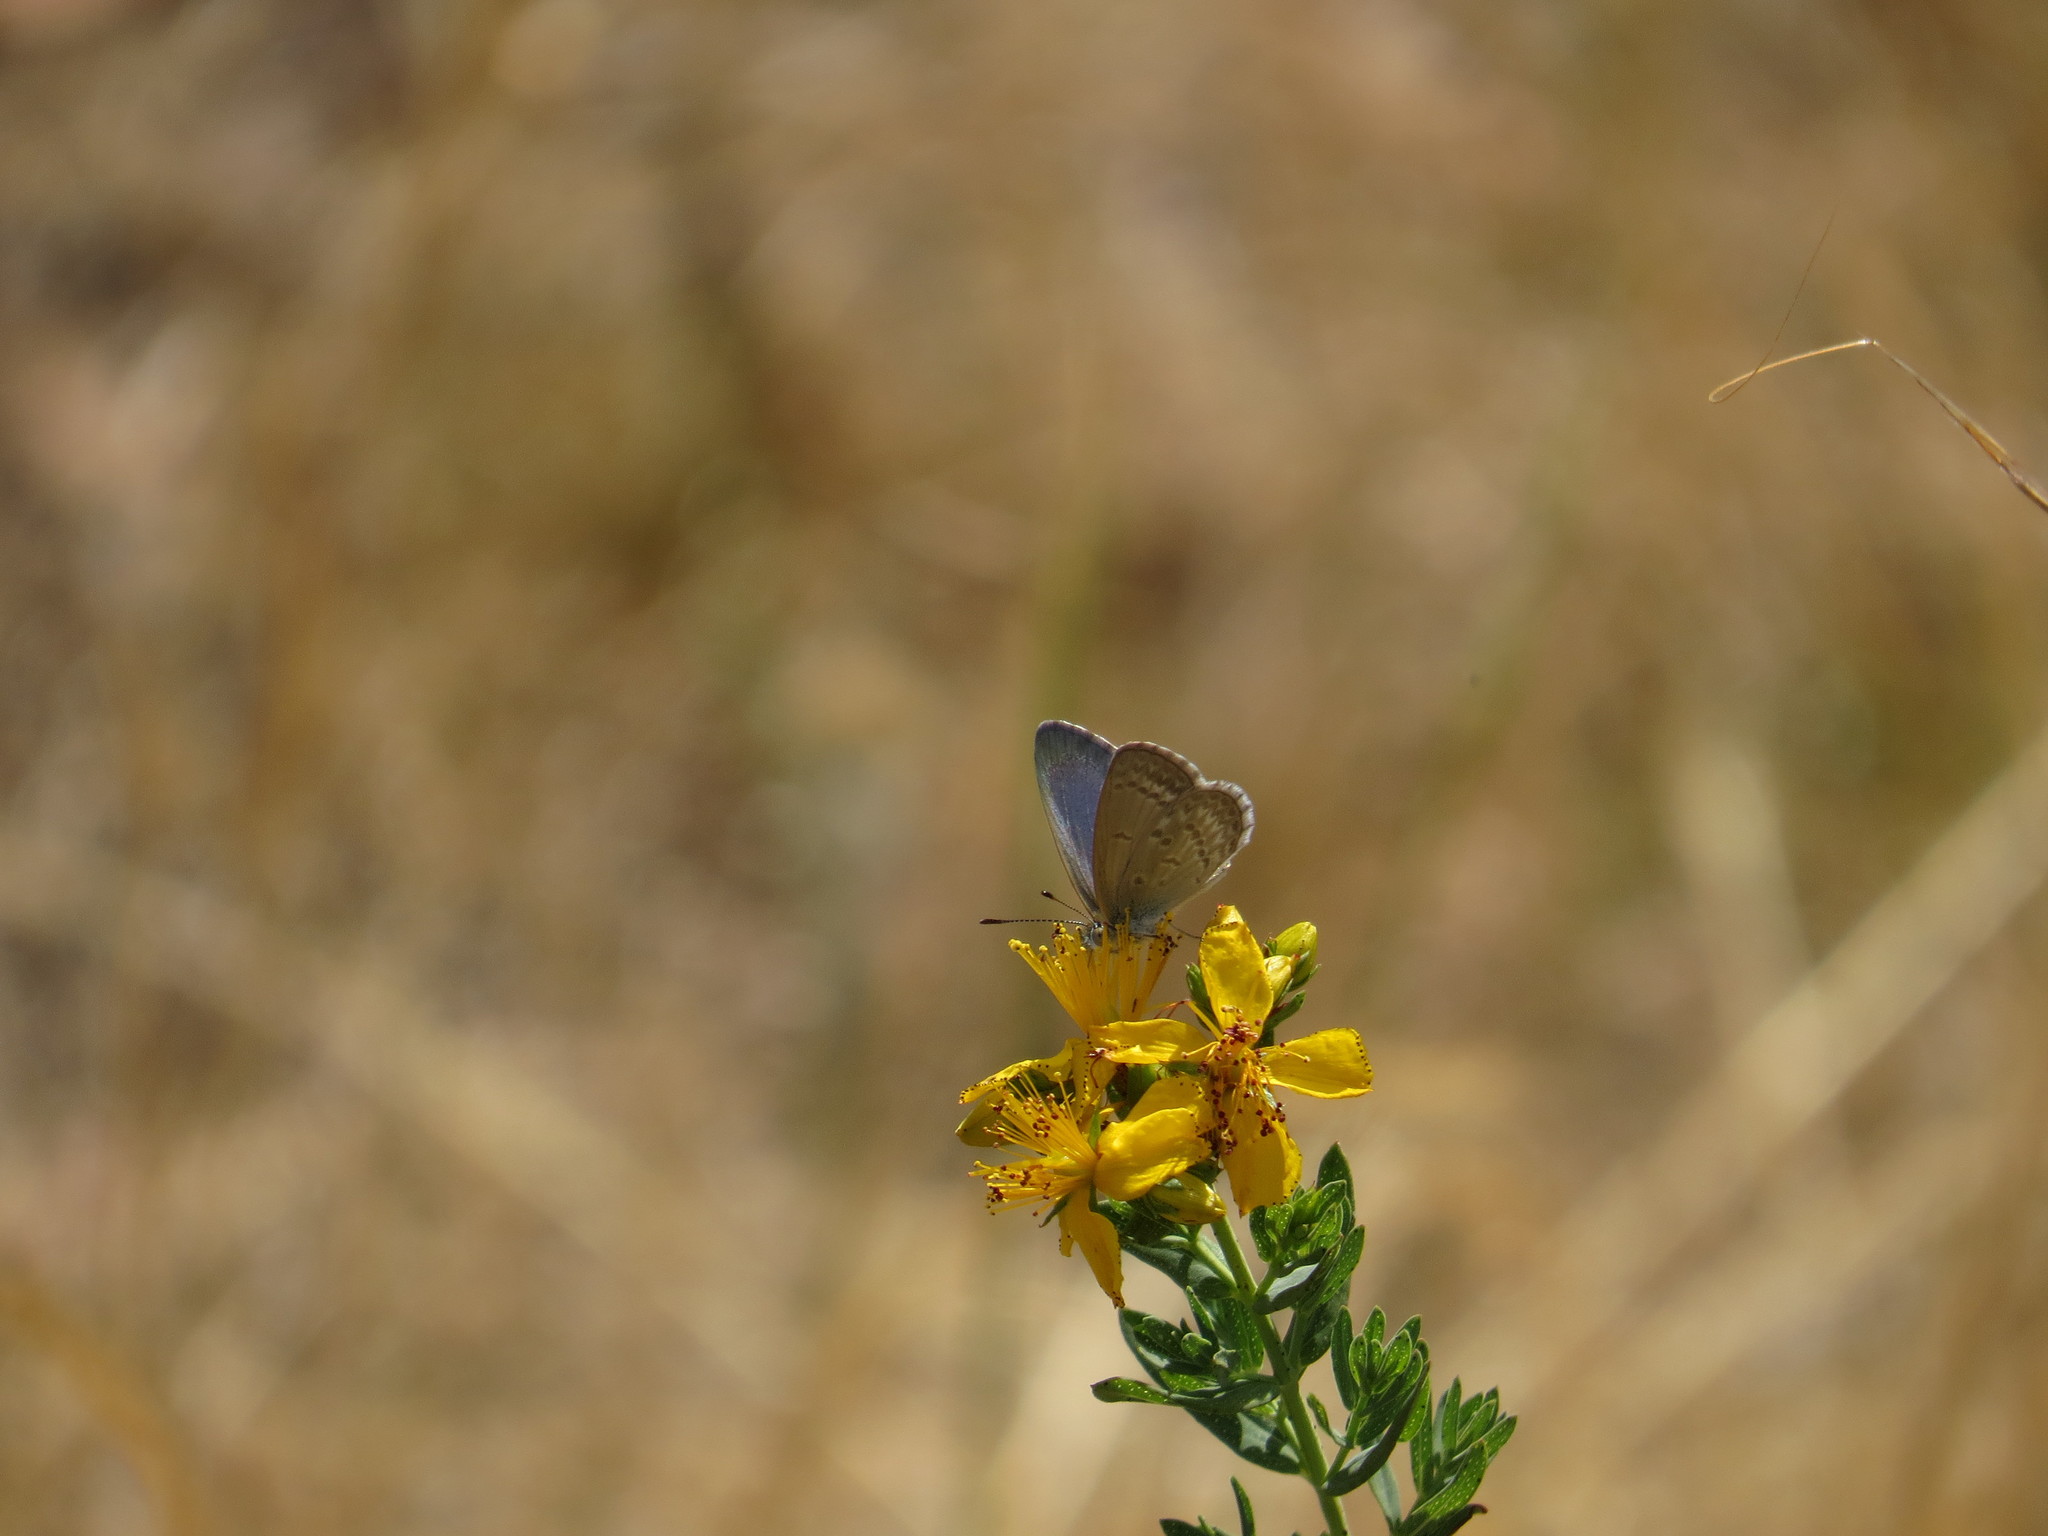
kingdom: Animalia
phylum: Arthropoda
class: Insecta
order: Lepidoptera
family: Lycaenidae
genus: Zizina
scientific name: Zizina labradus
